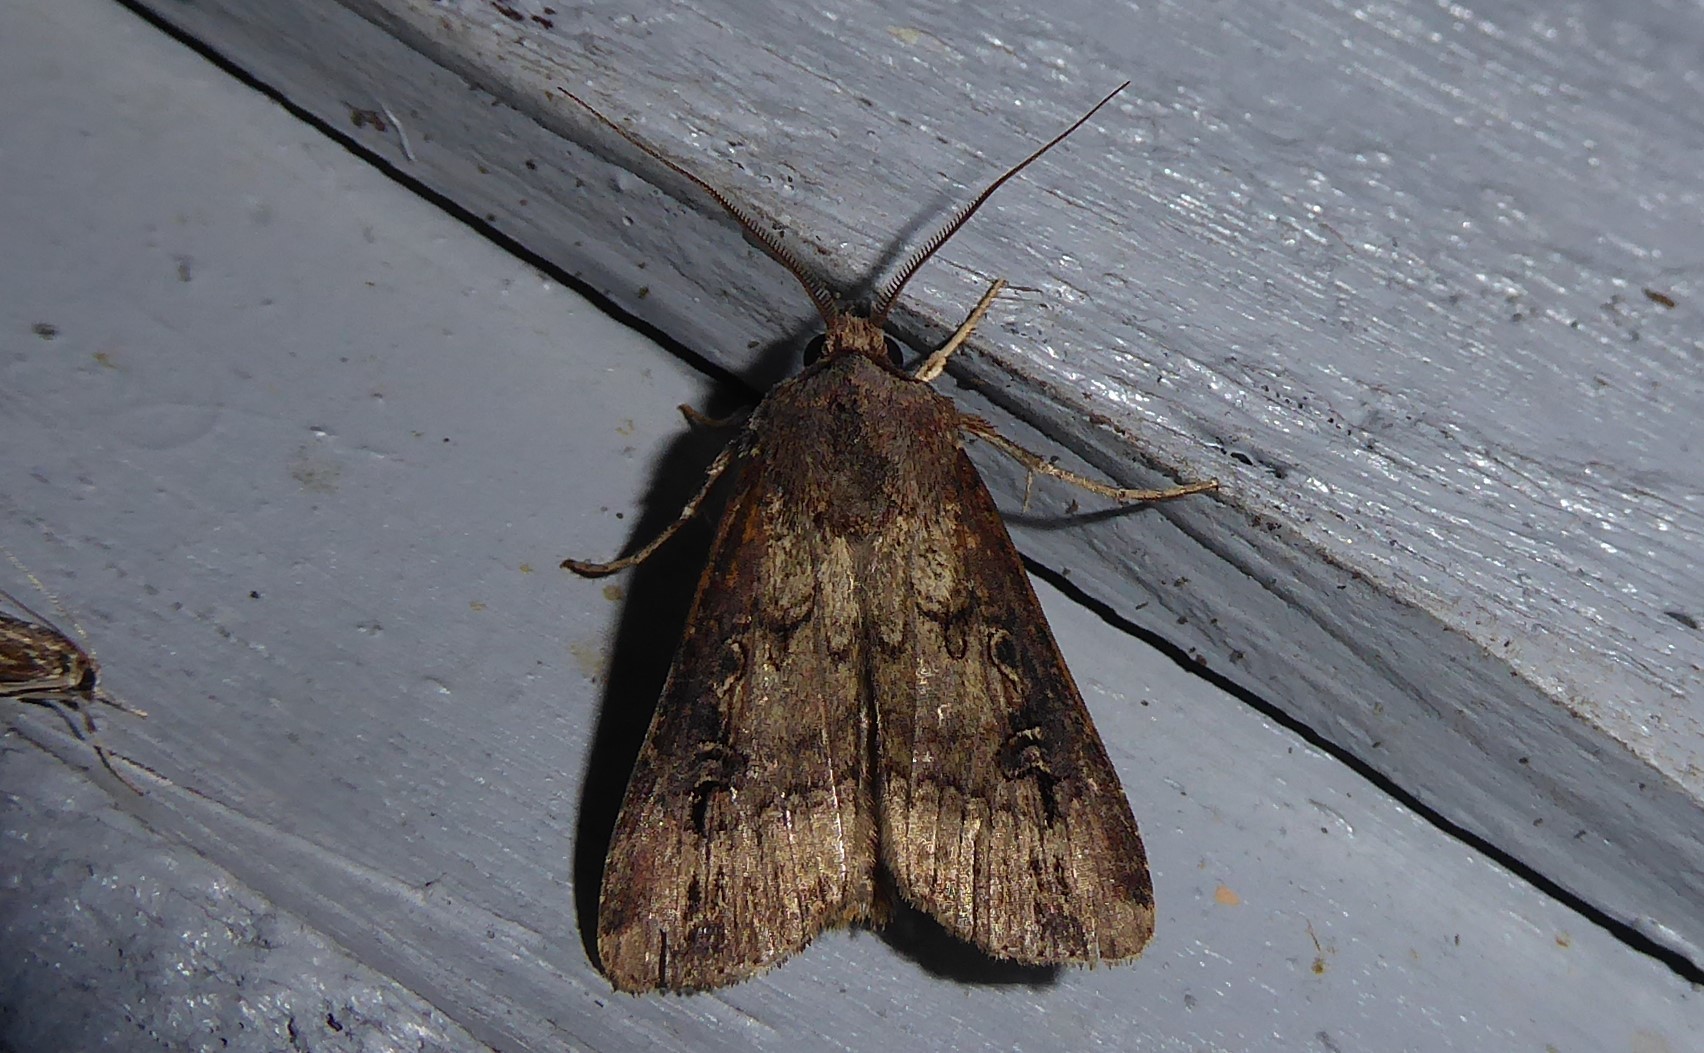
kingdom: Animalia
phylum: Arthropoda
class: Insecta
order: Lepidoptera
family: Noctuidae
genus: Agrotis
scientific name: Agrotis ipsilon
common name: Dark sword-grass
